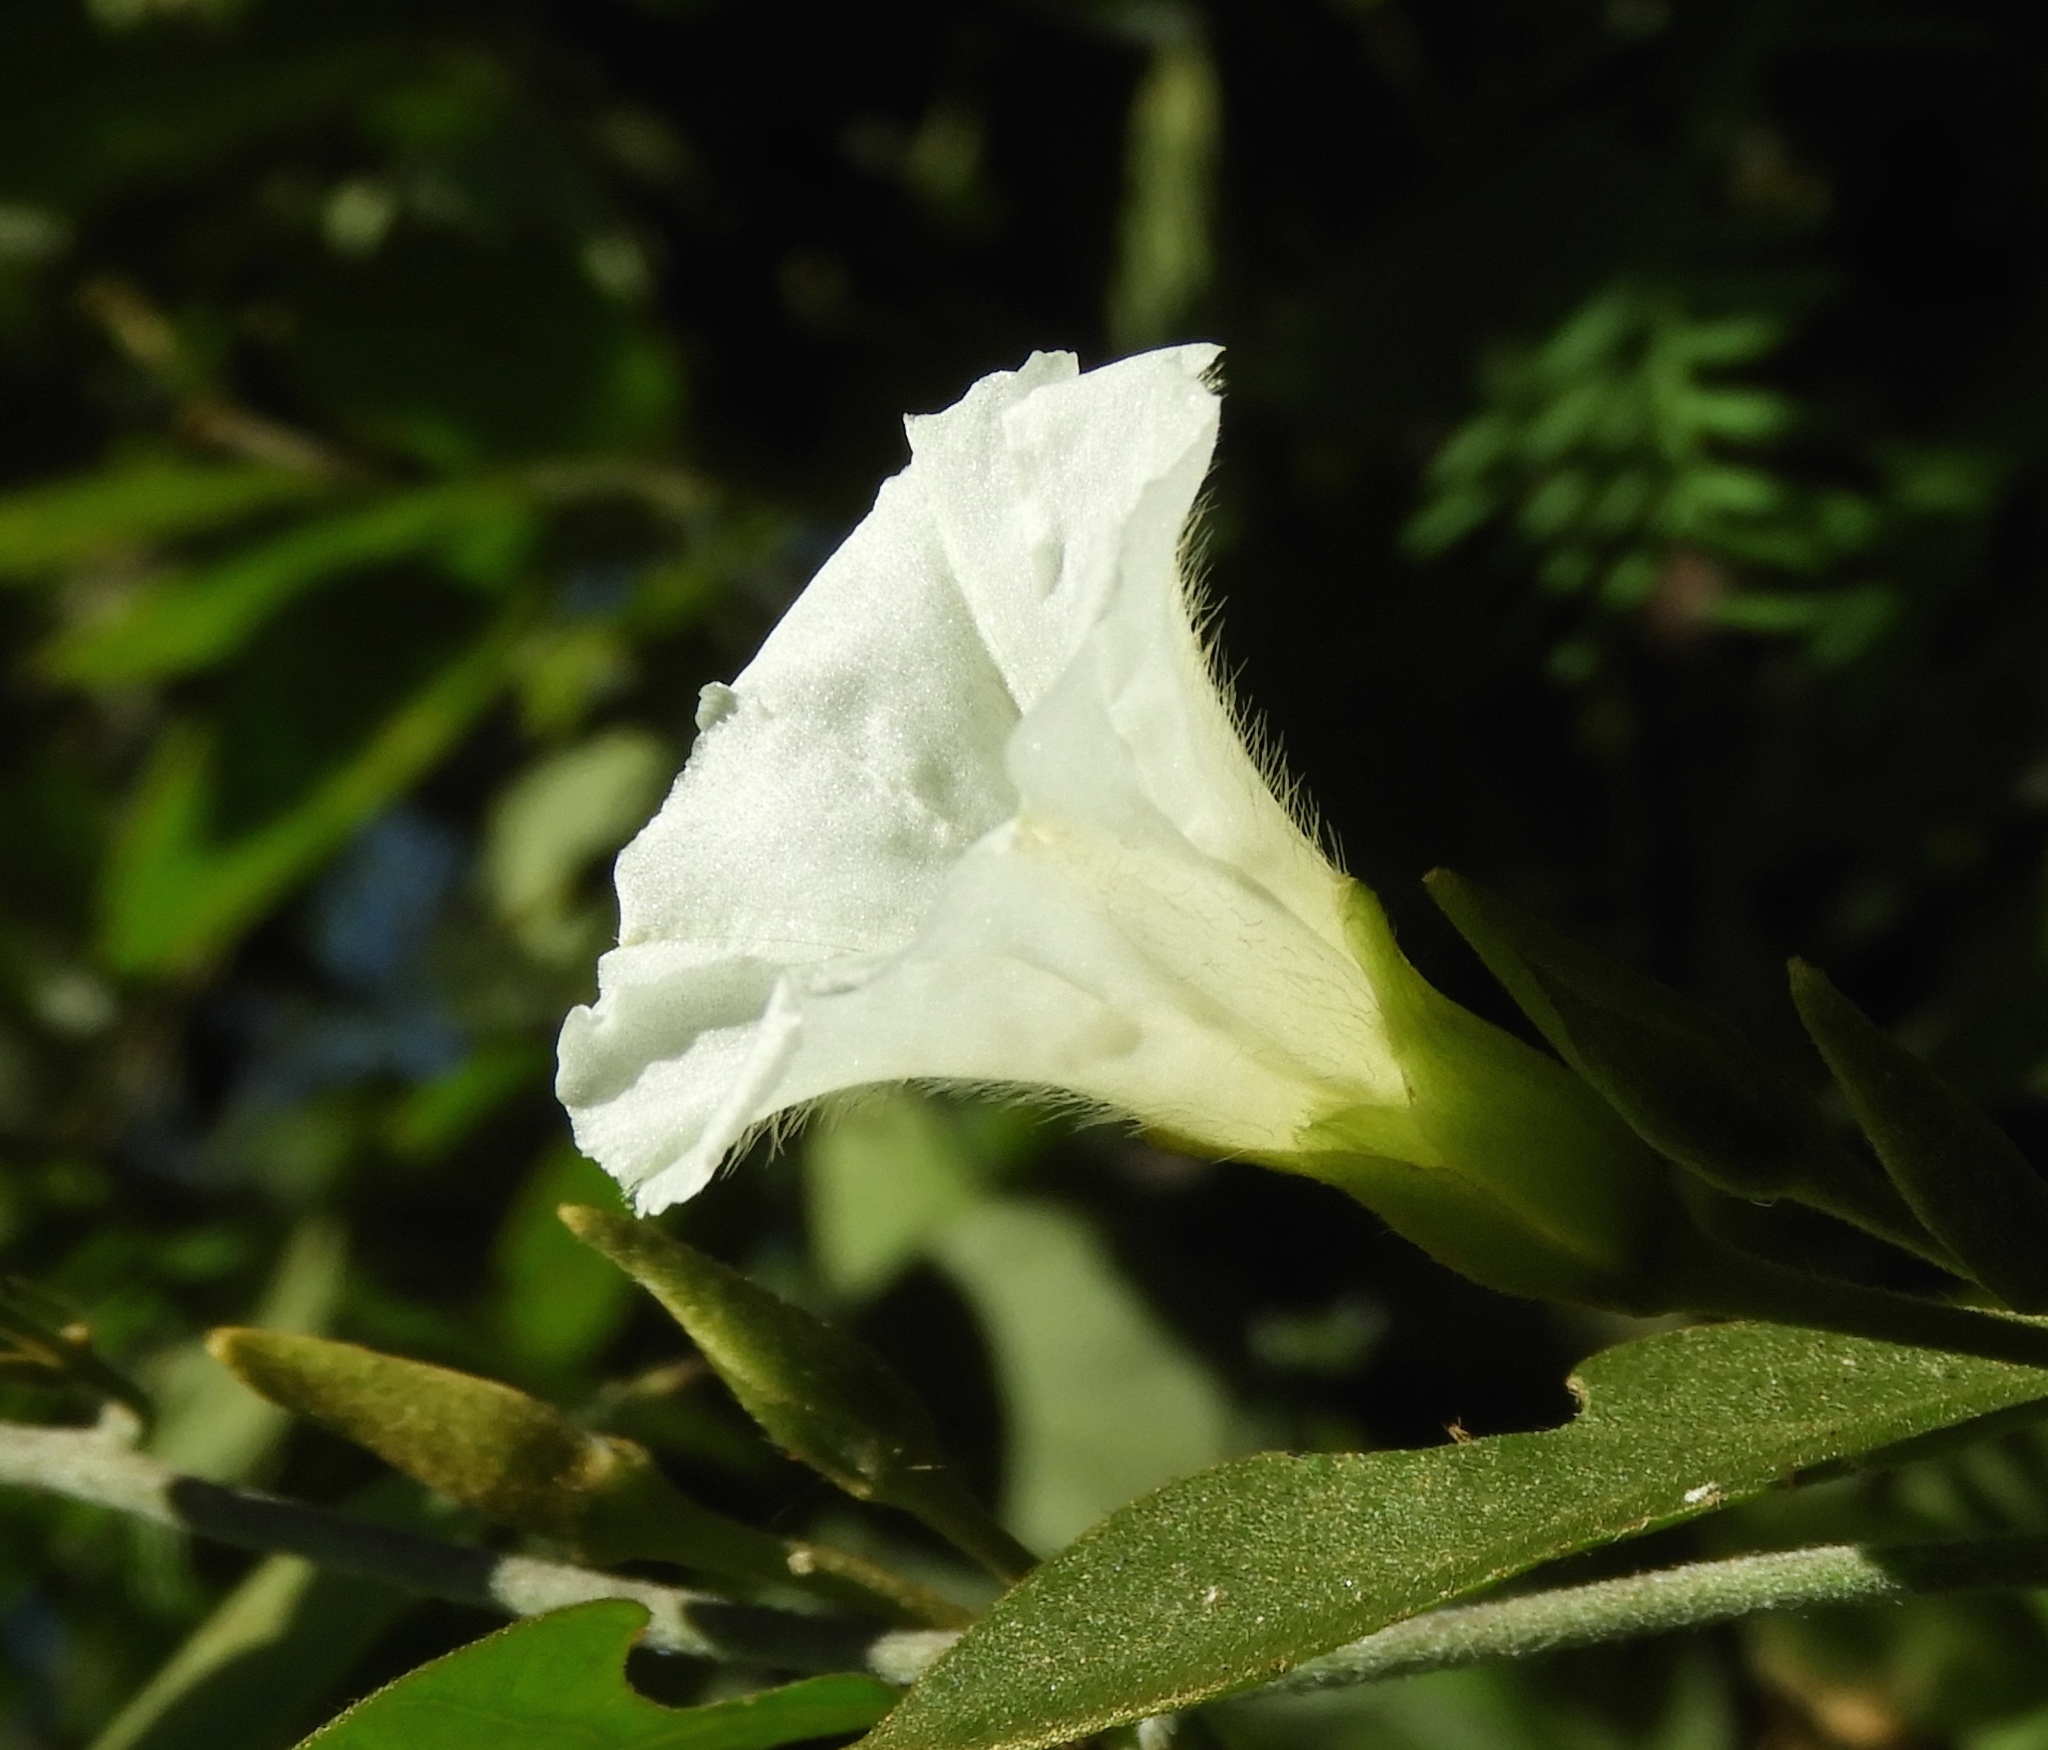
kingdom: Plantae
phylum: Tracheophyta
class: Magnoliopsida
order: Solanales
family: Convolvulaceae
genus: Bonamia
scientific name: Bonamia sulphurea
